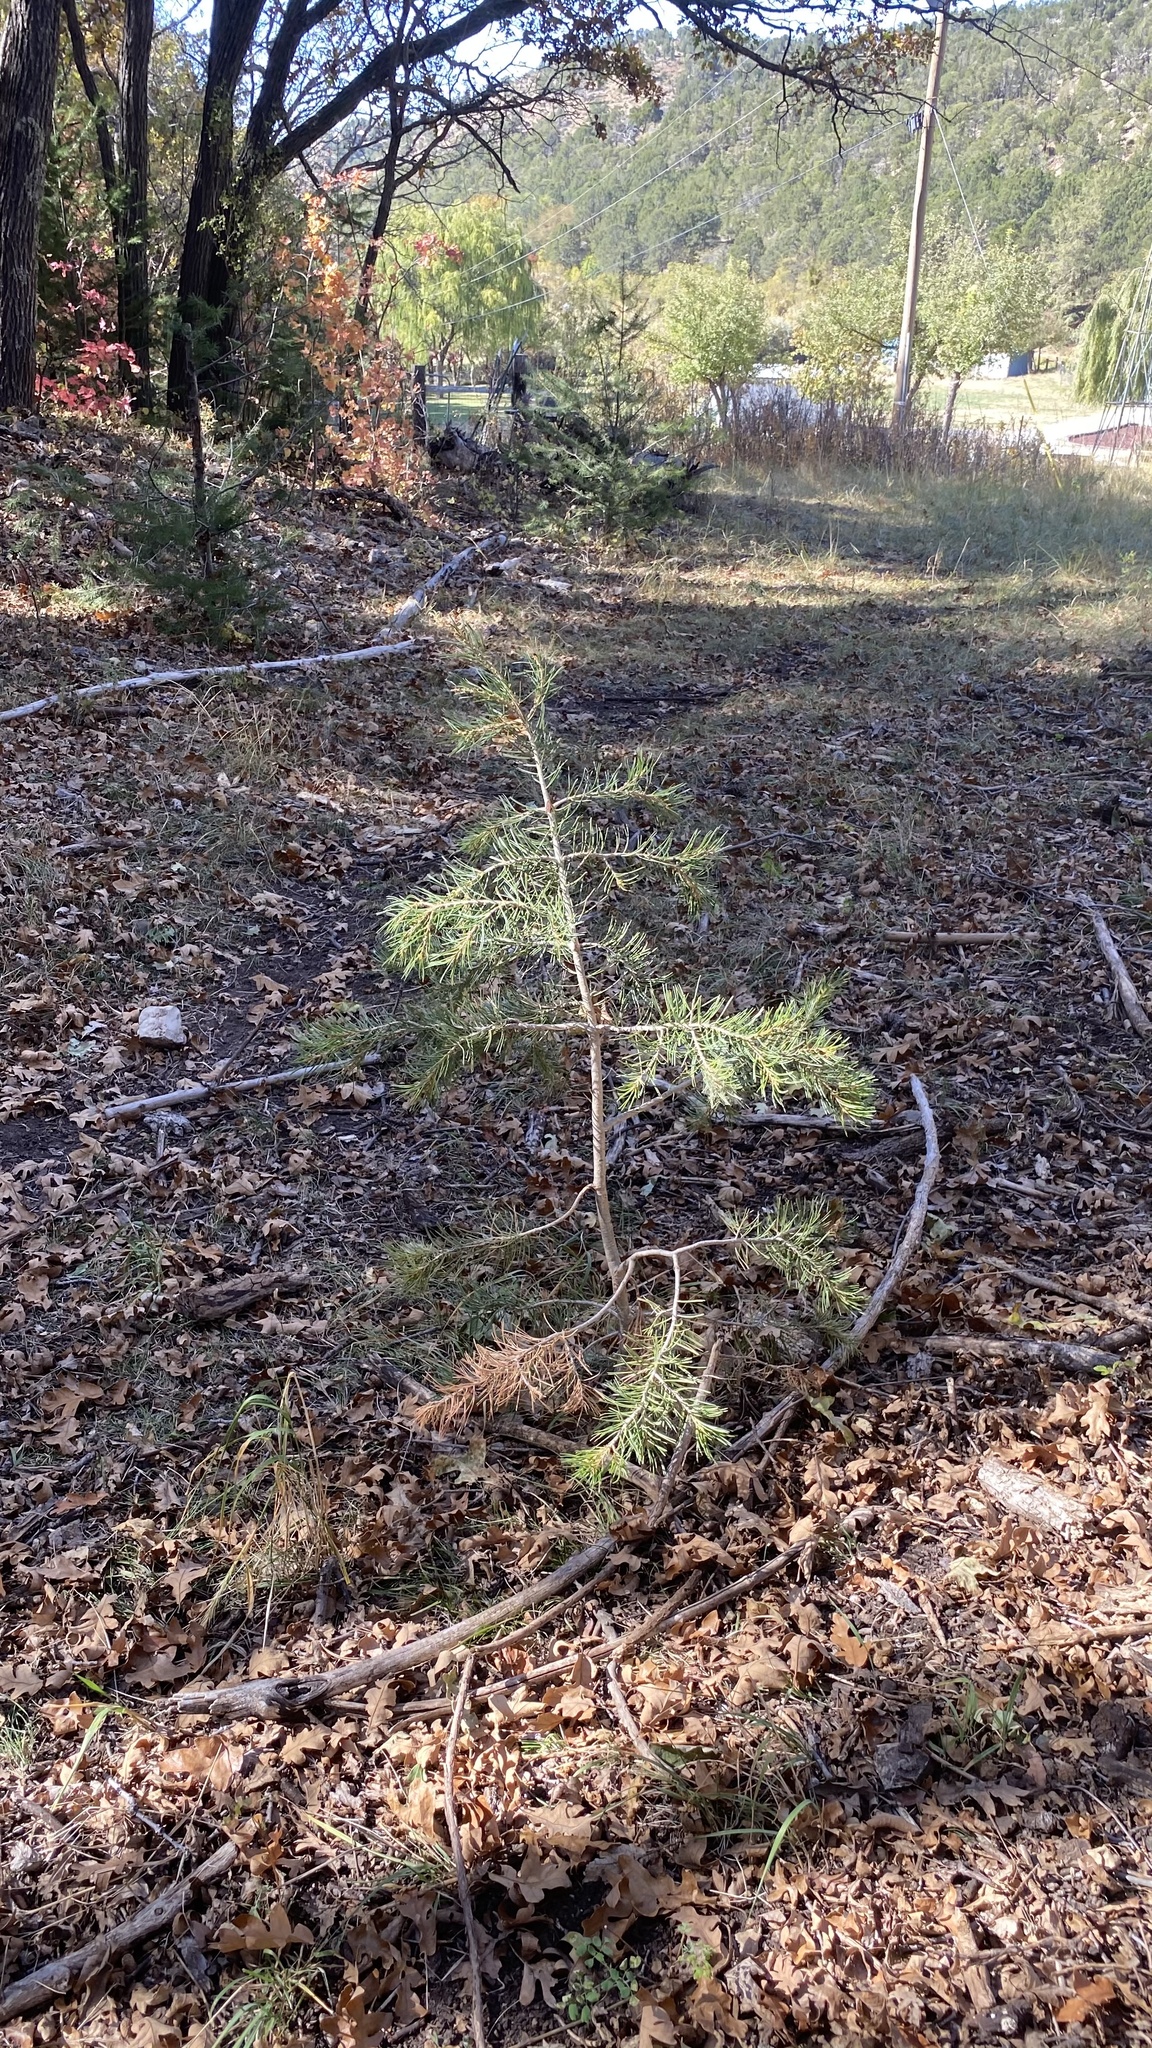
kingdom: Plantae
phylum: Tracheophyta
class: Pinopsida
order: Pinales
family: Pinaceae
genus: Pinus
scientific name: Pinus edulis
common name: Colorado pinyon
